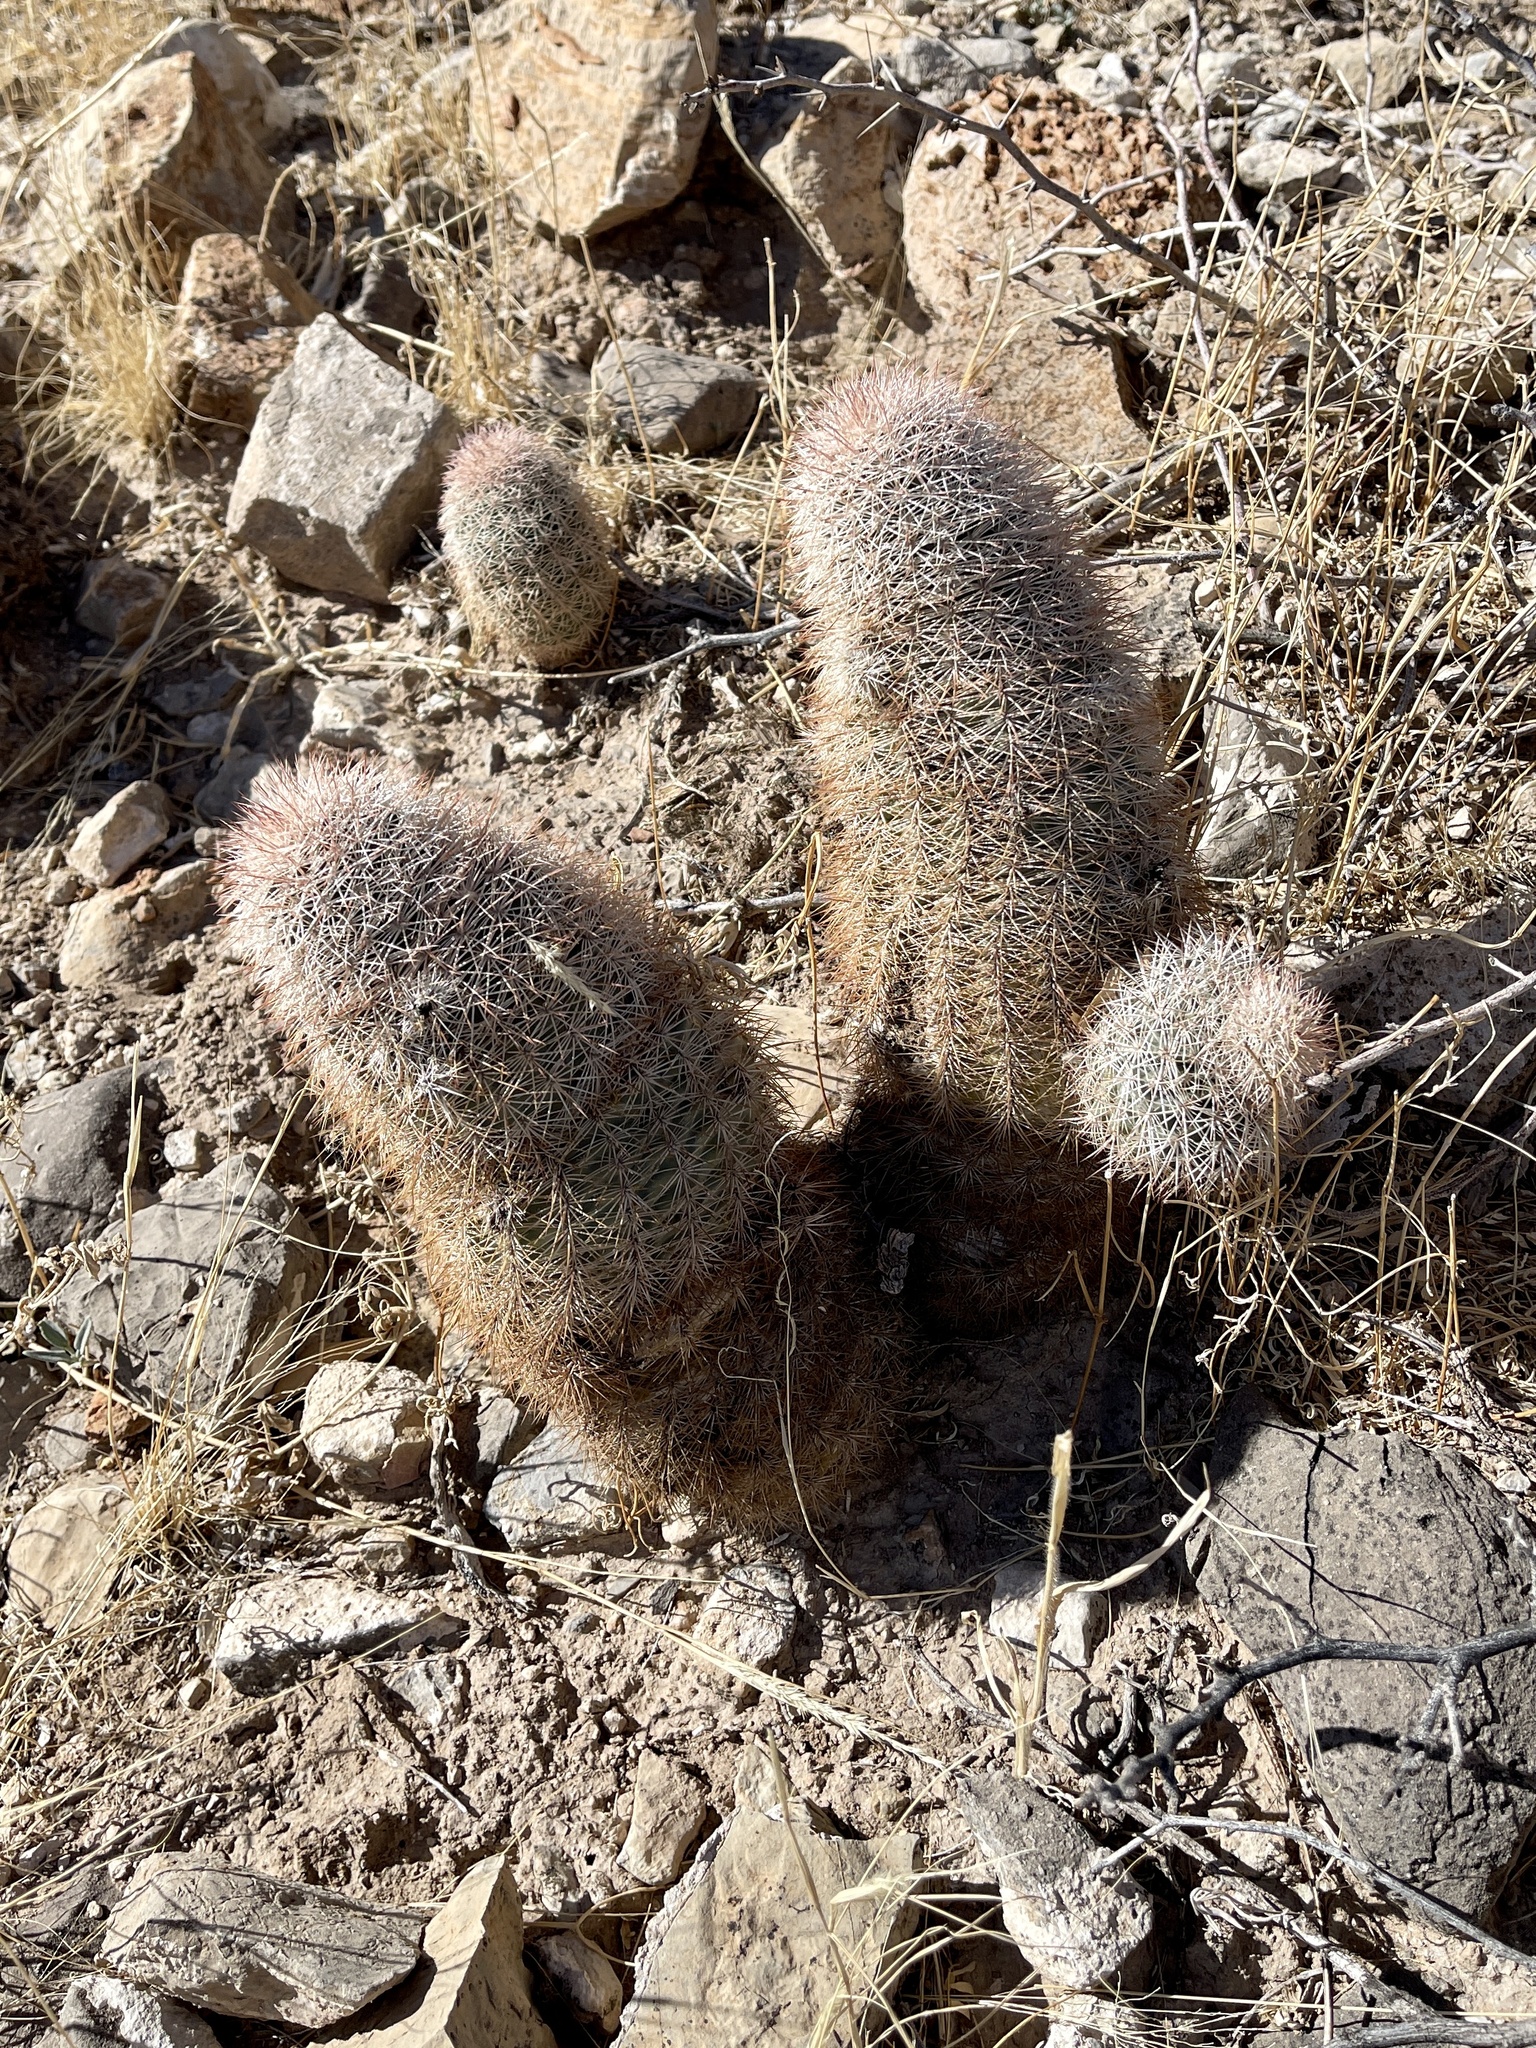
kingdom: Plantae
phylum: Tracheophyta
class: Magnoliopsida
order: Caryophyllales
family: Cactaceae
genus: Echinocereus
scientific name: Echinocereus dasyacanthus
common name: Spiny hedgehog cactus
